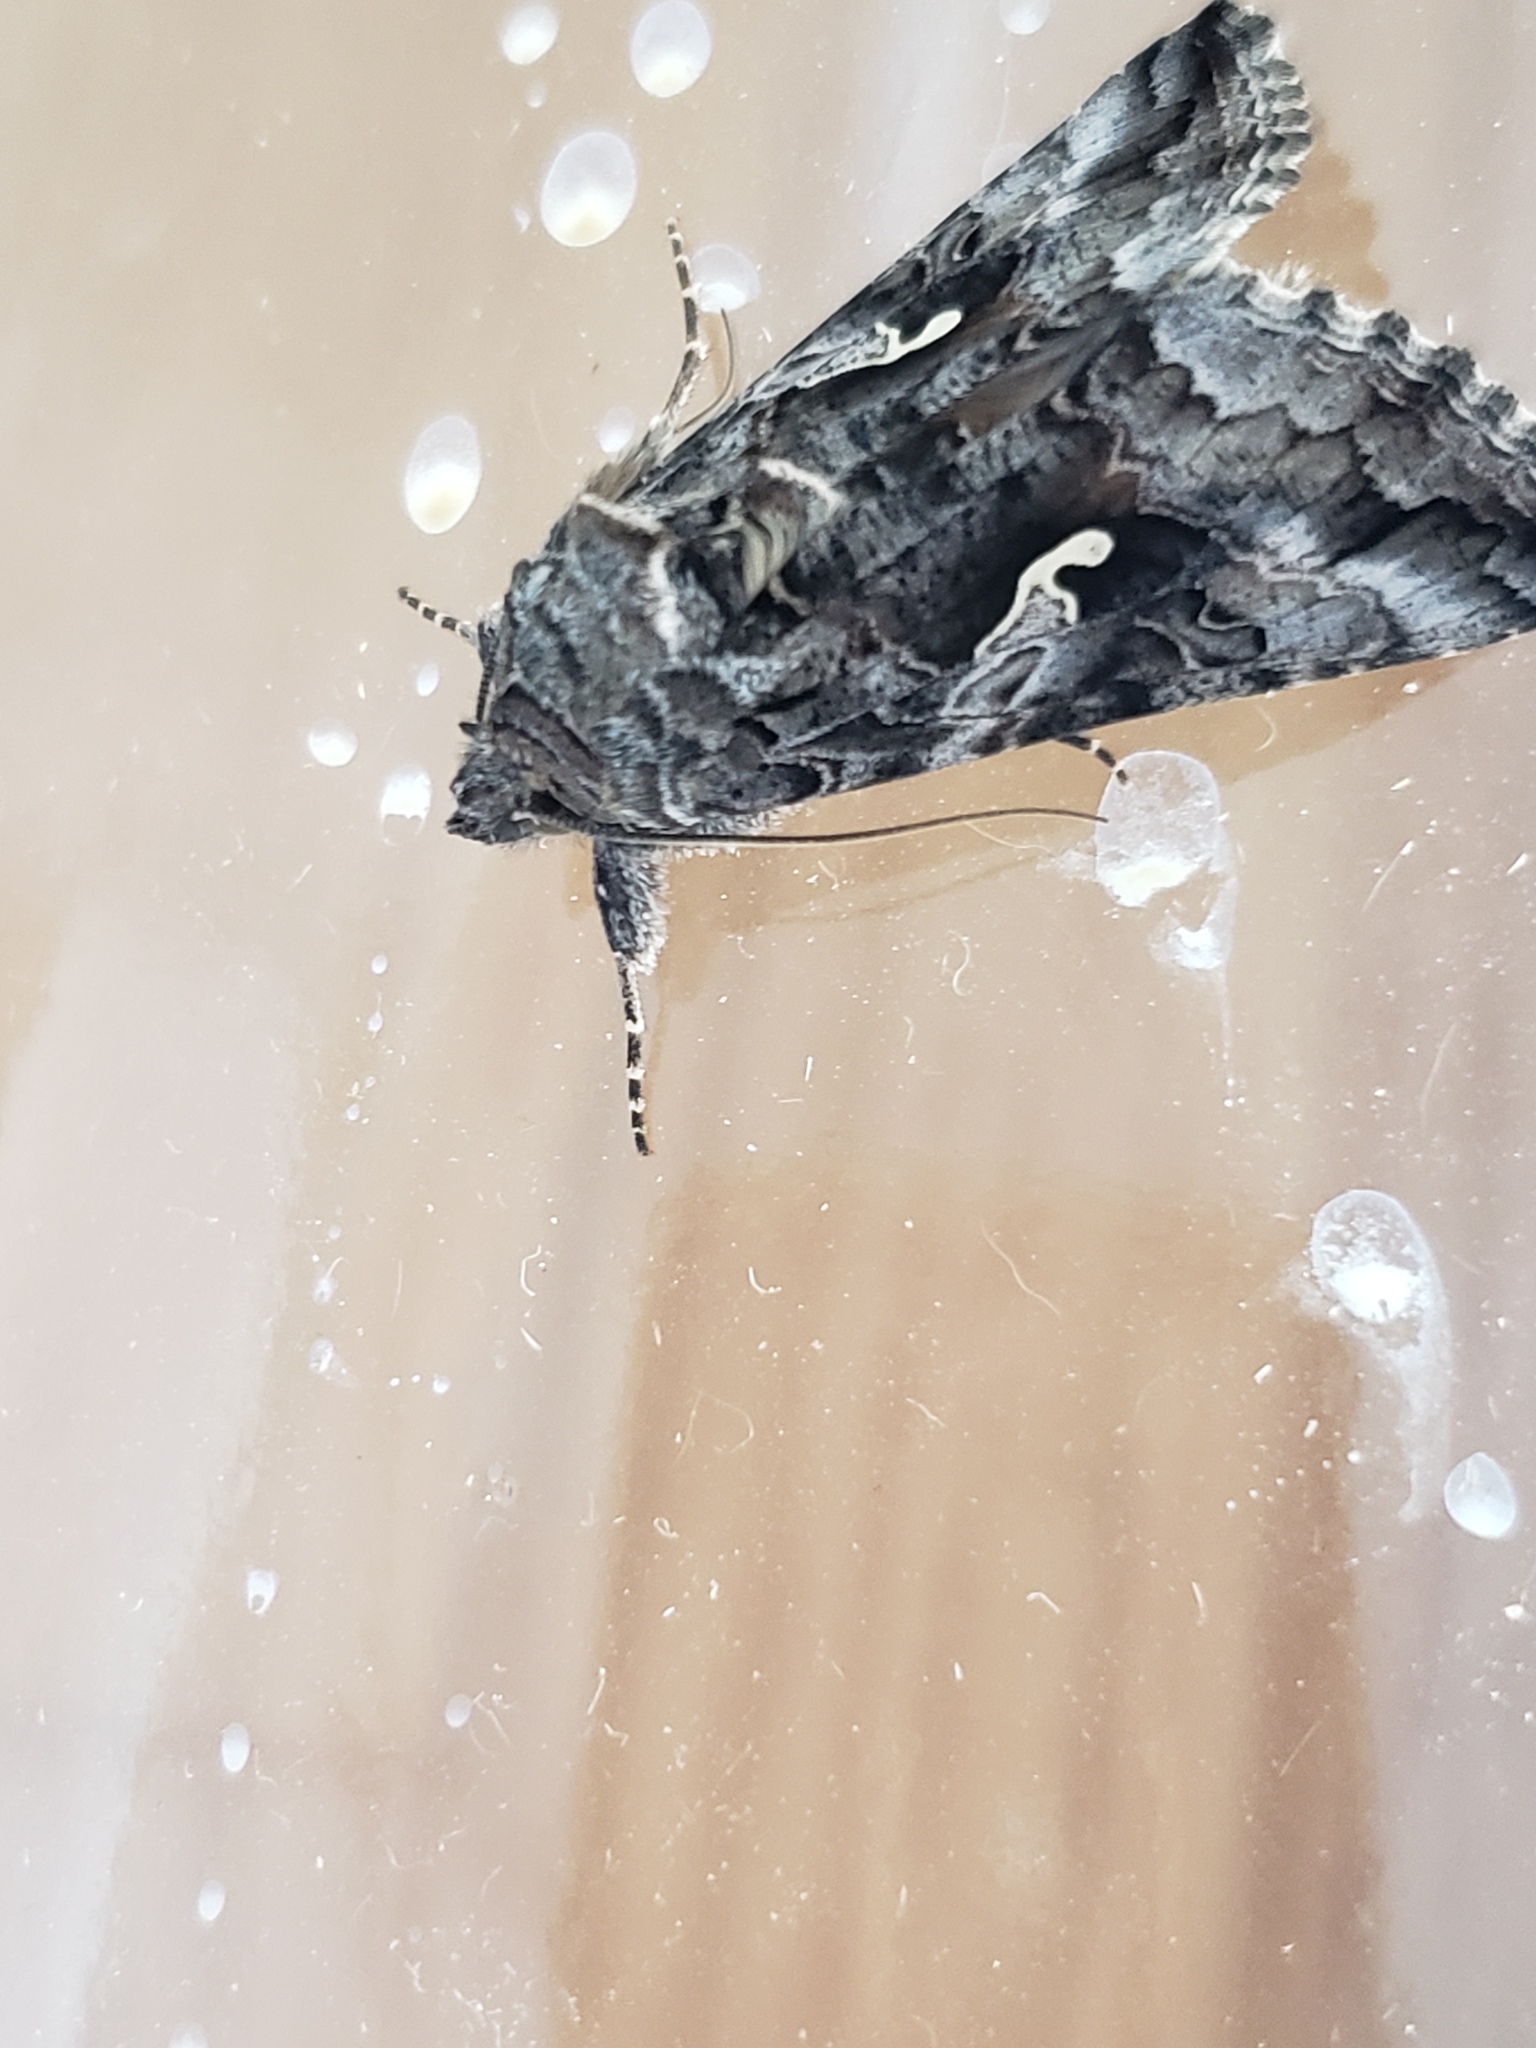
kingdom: Animalia
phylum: Arthropoda
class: Insecta
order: Lepidoptera
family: Noctuidae
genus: Autographa
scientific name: Autographa californica
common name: Alfalfa looper
